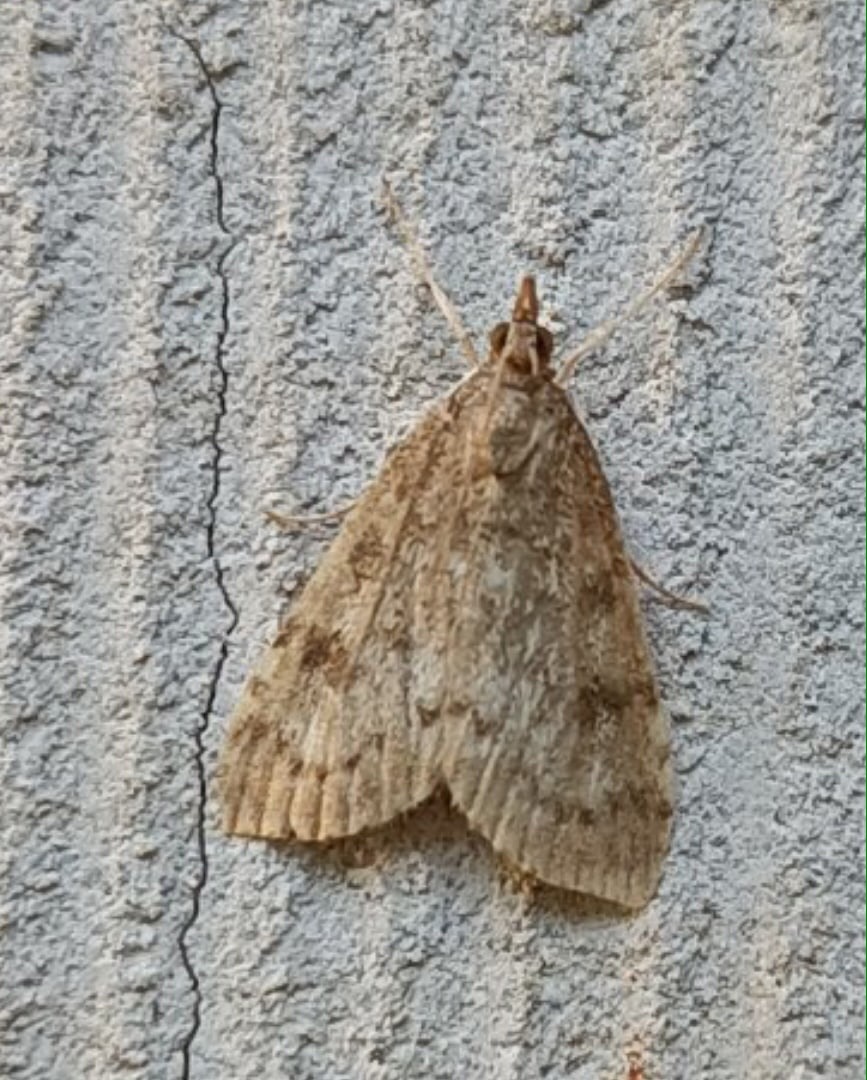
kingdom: Animalia
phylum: Arthropoda
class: Insecta
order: Lepidoptera
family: Crambidae
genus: Udea
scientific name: Udea prunalis
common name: Dusky pearl
